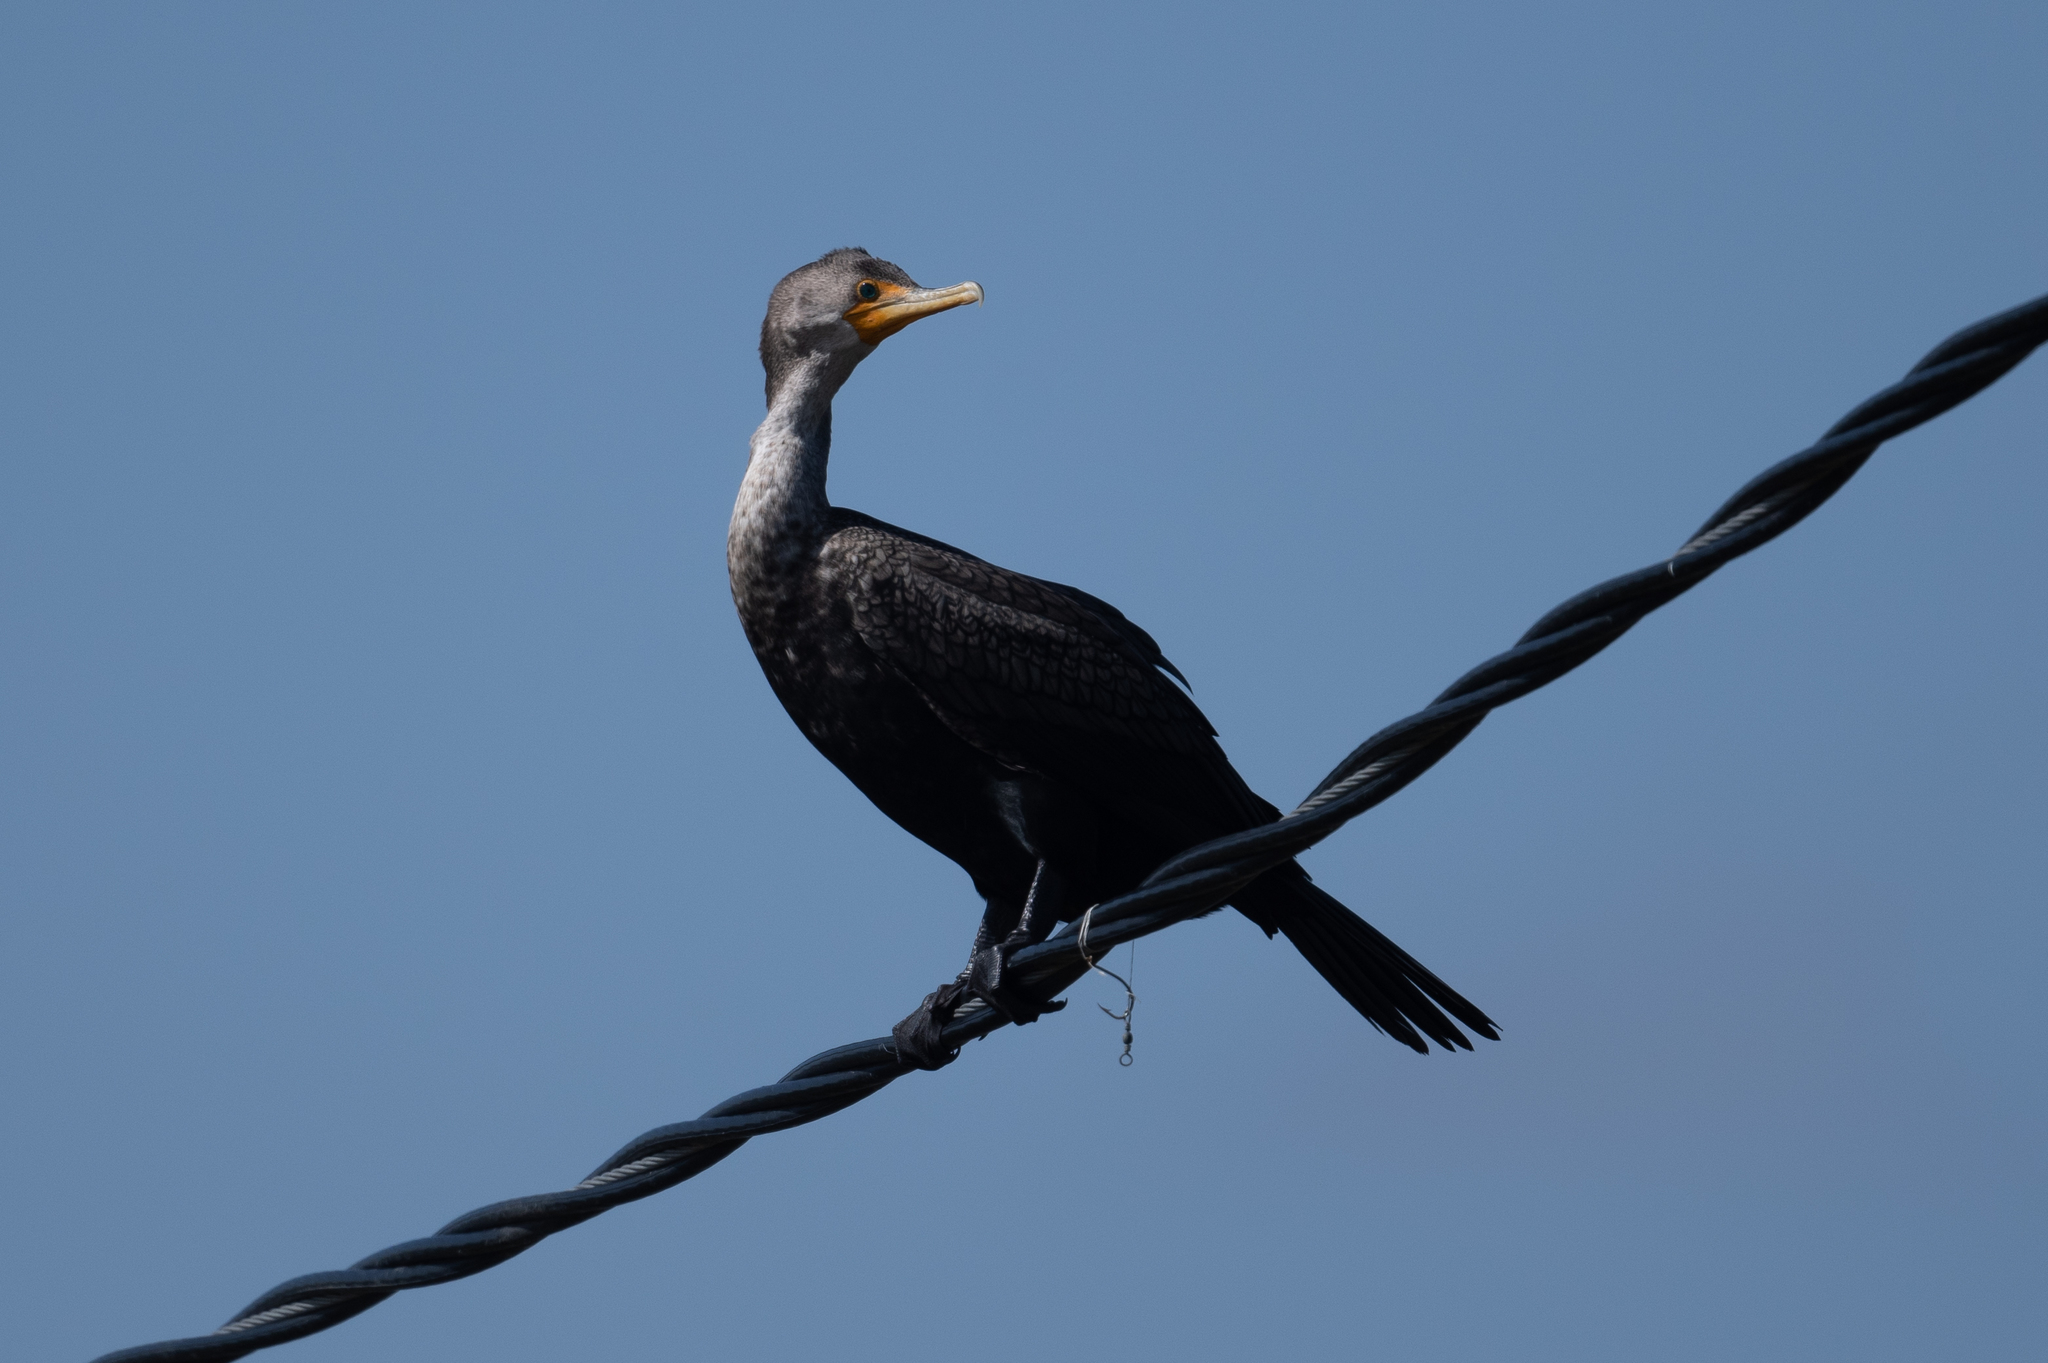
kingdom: Animalia
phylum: Chordata
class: Aves
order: Suliformes
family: Phalacrocoracidae
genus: Phalacrocorax
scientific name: Phalacrocorax auritus
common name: Double-crested cormorant
